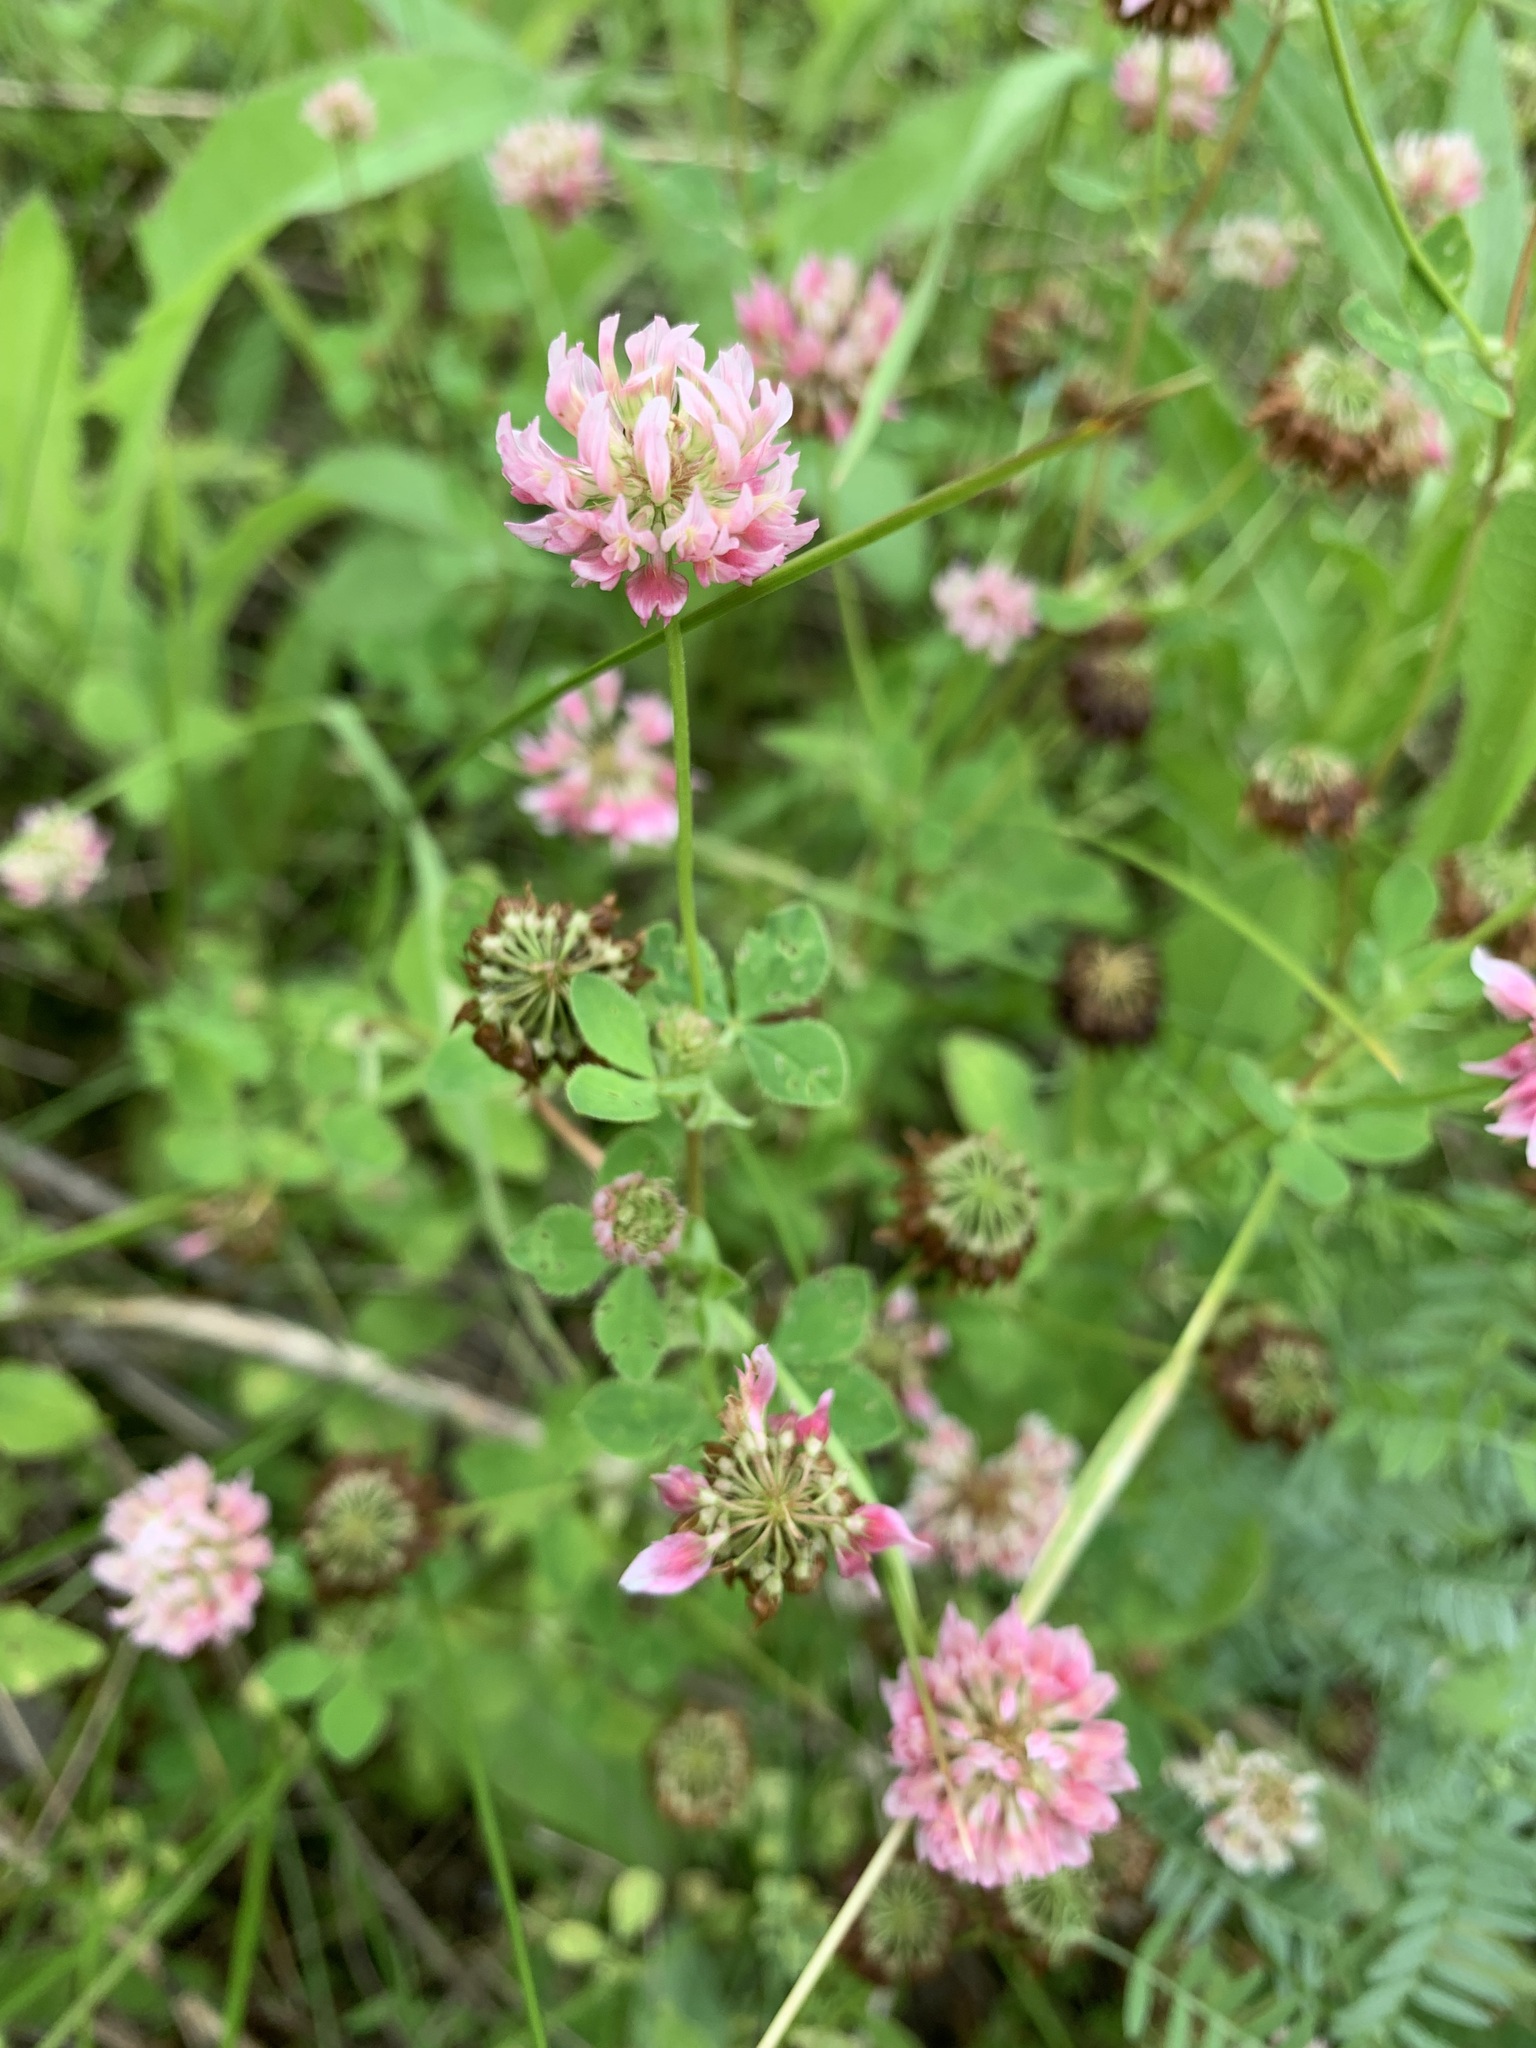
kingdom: Plantae
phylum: Tracheophyta
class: Magnoliopsida
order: Fabales
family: Fabaceae
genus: Trifolium
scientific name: Trifolium hybridum
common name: Alsike clover
